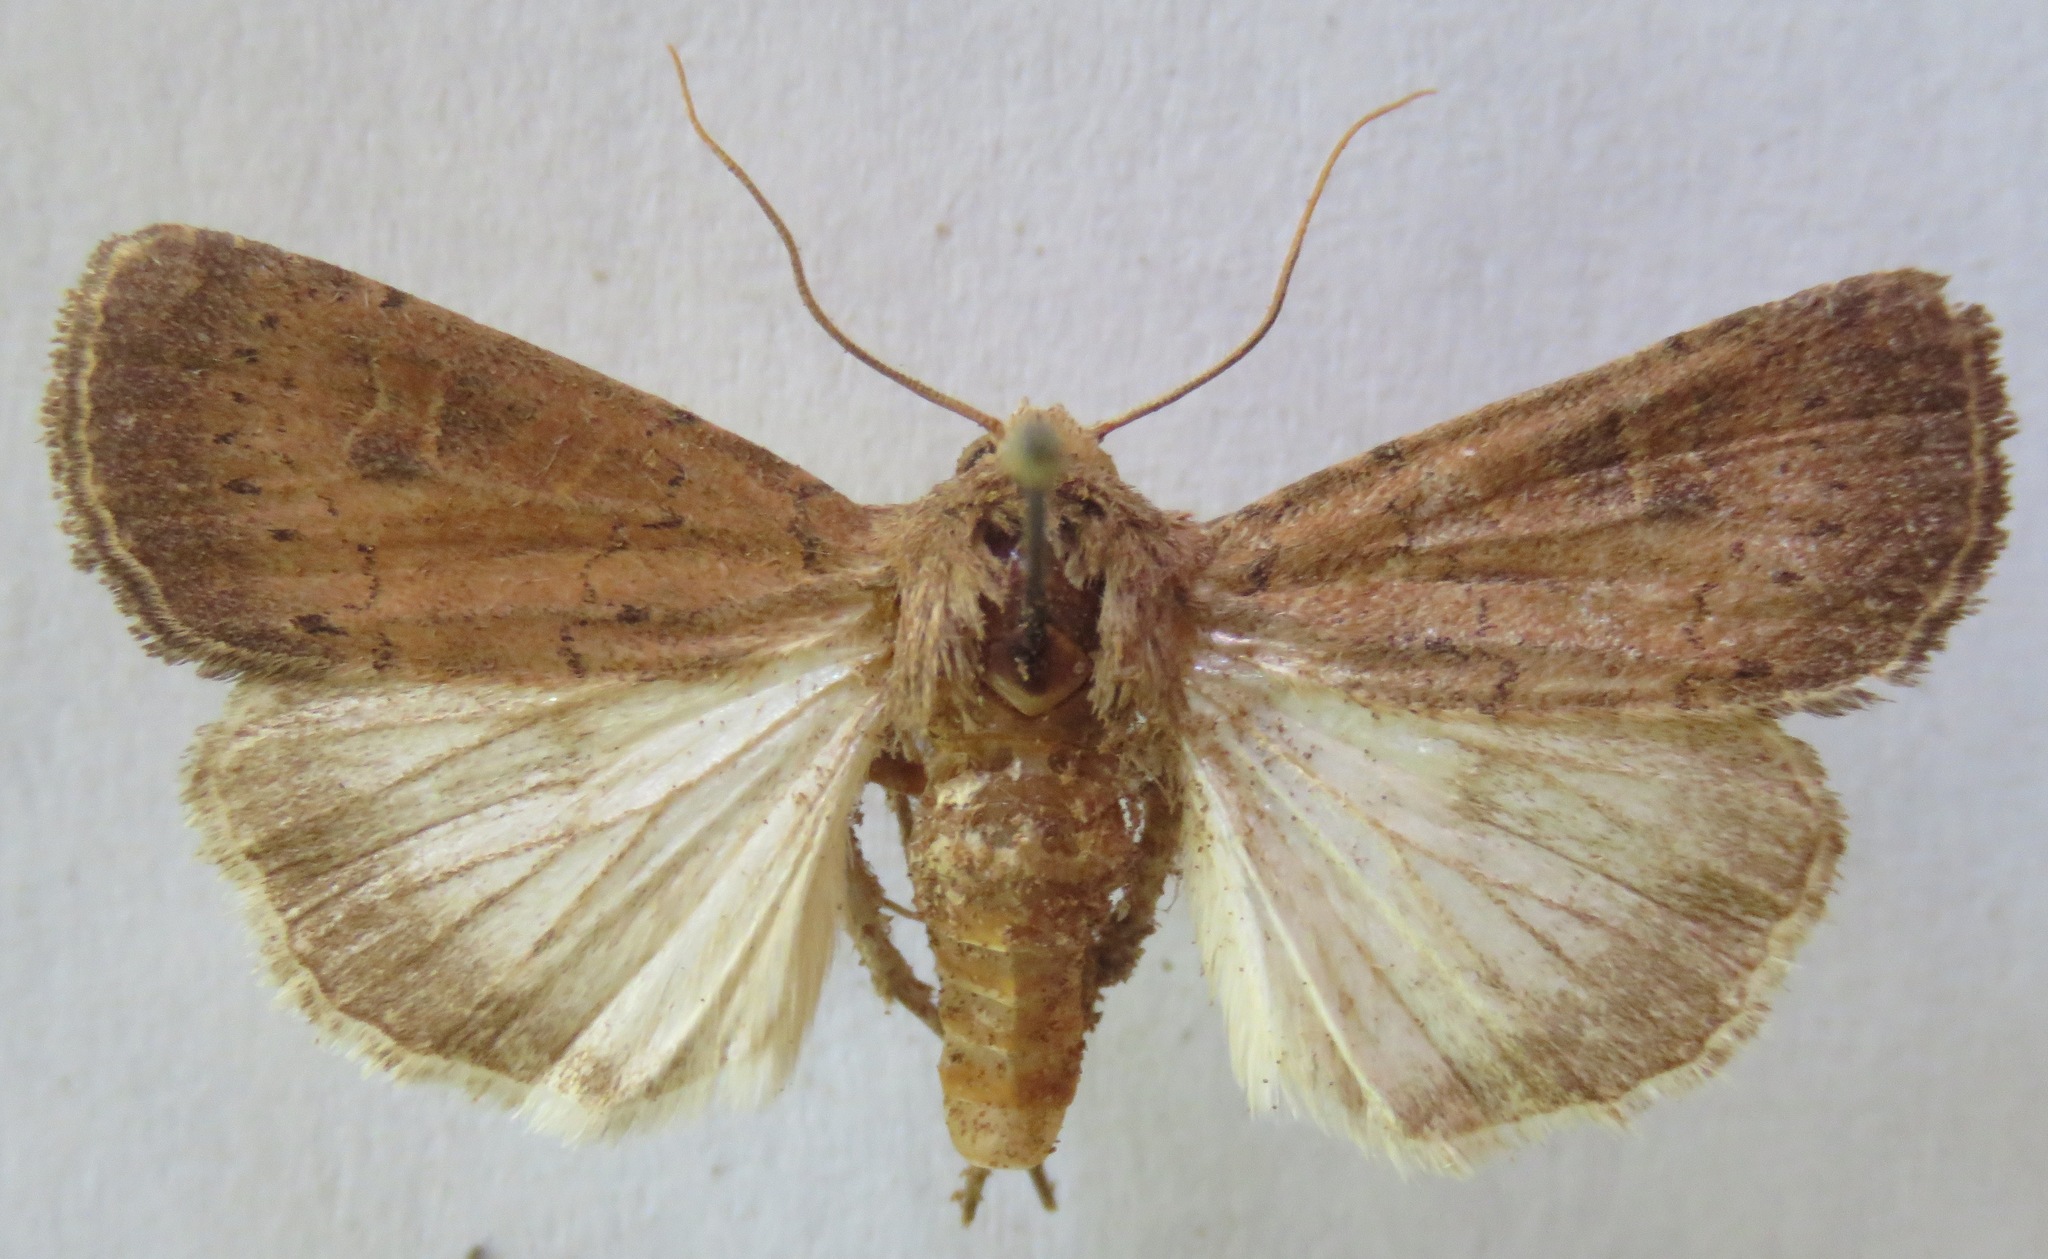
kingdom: Animalia
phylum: Arthropoda
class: Insecta
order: Lepidoptera
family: Noctuidae
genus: Xestia
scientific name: Xestia xanthographa
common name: Square-spot rustic
